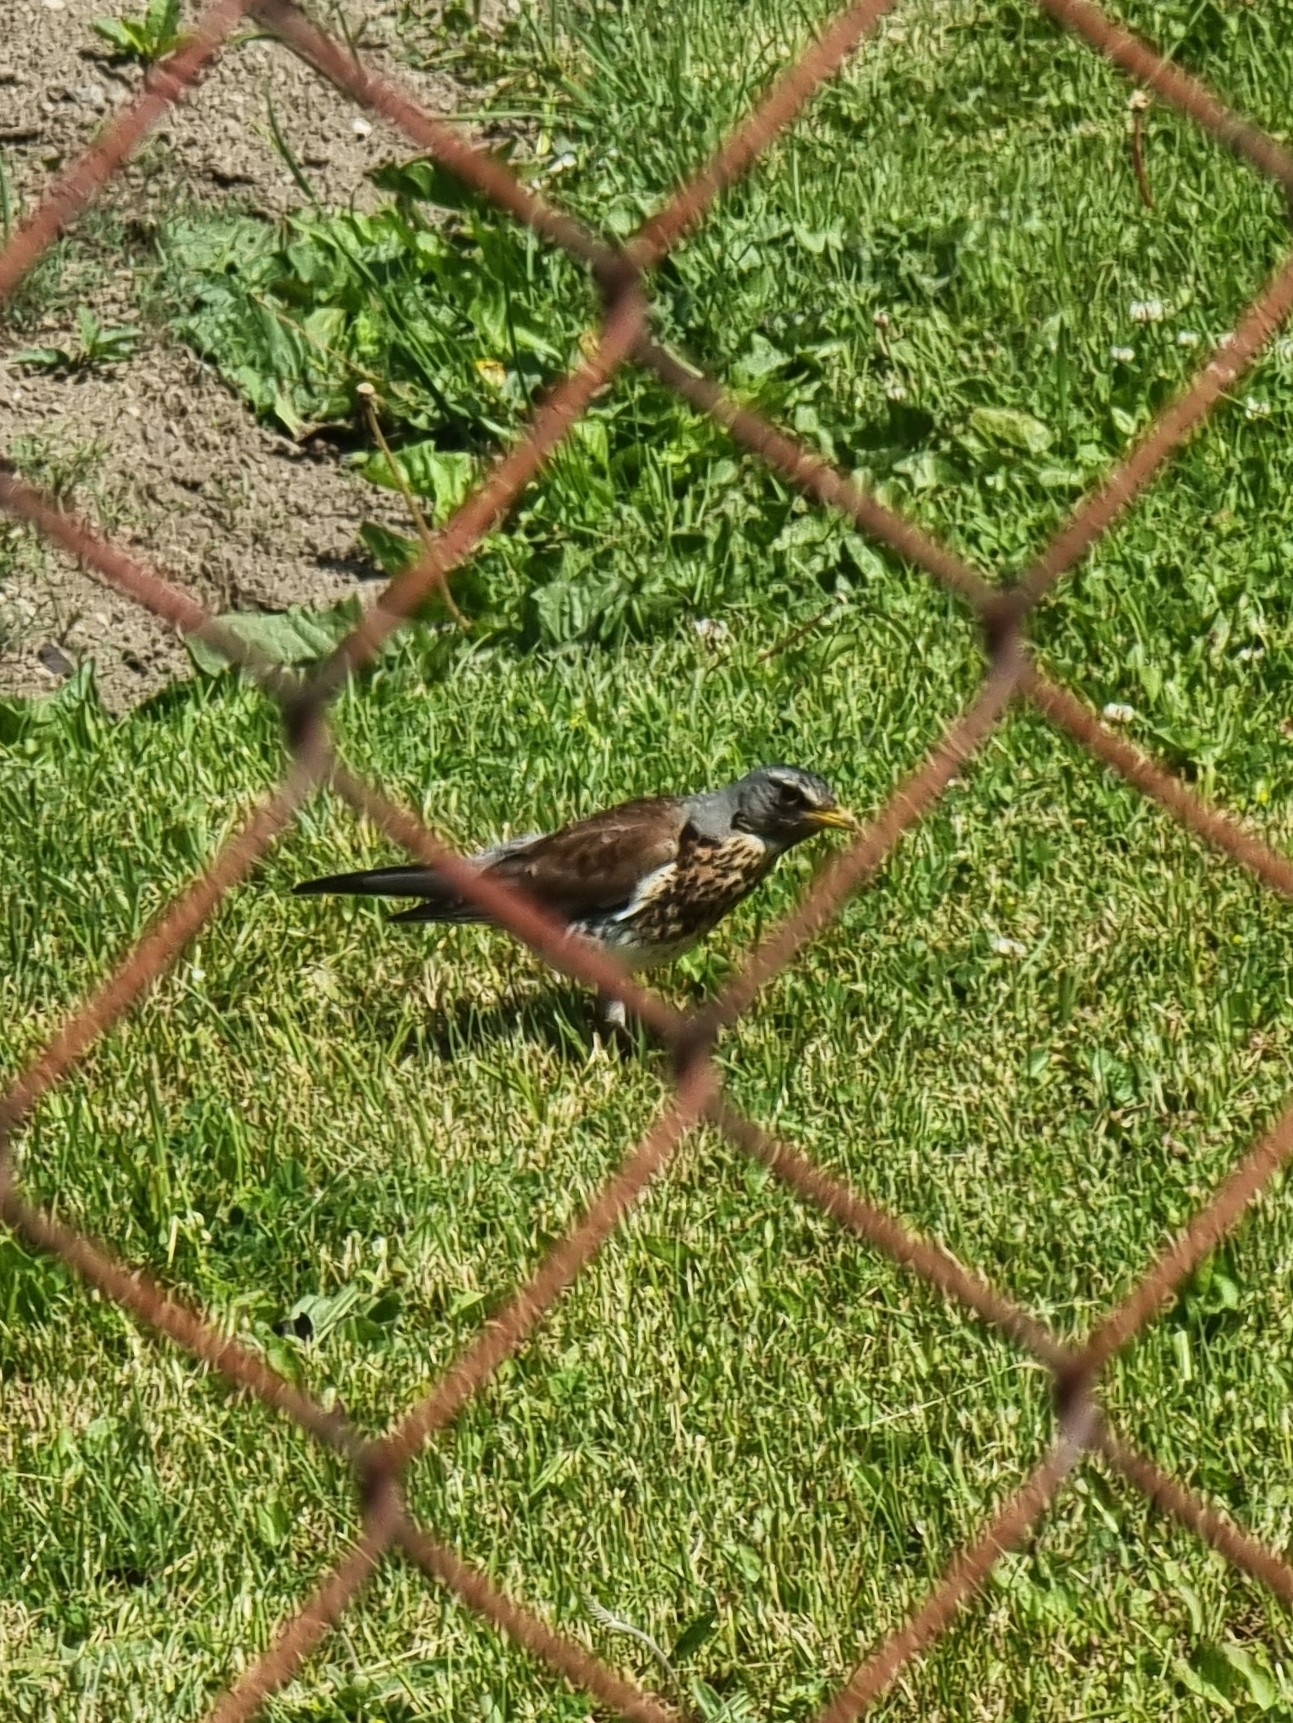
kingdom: Animalia
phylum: Chordata
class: Aves
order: Passeriformes
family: Turdidae
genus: Turdus
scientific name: Turdus pilaris
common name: Fieldfare
